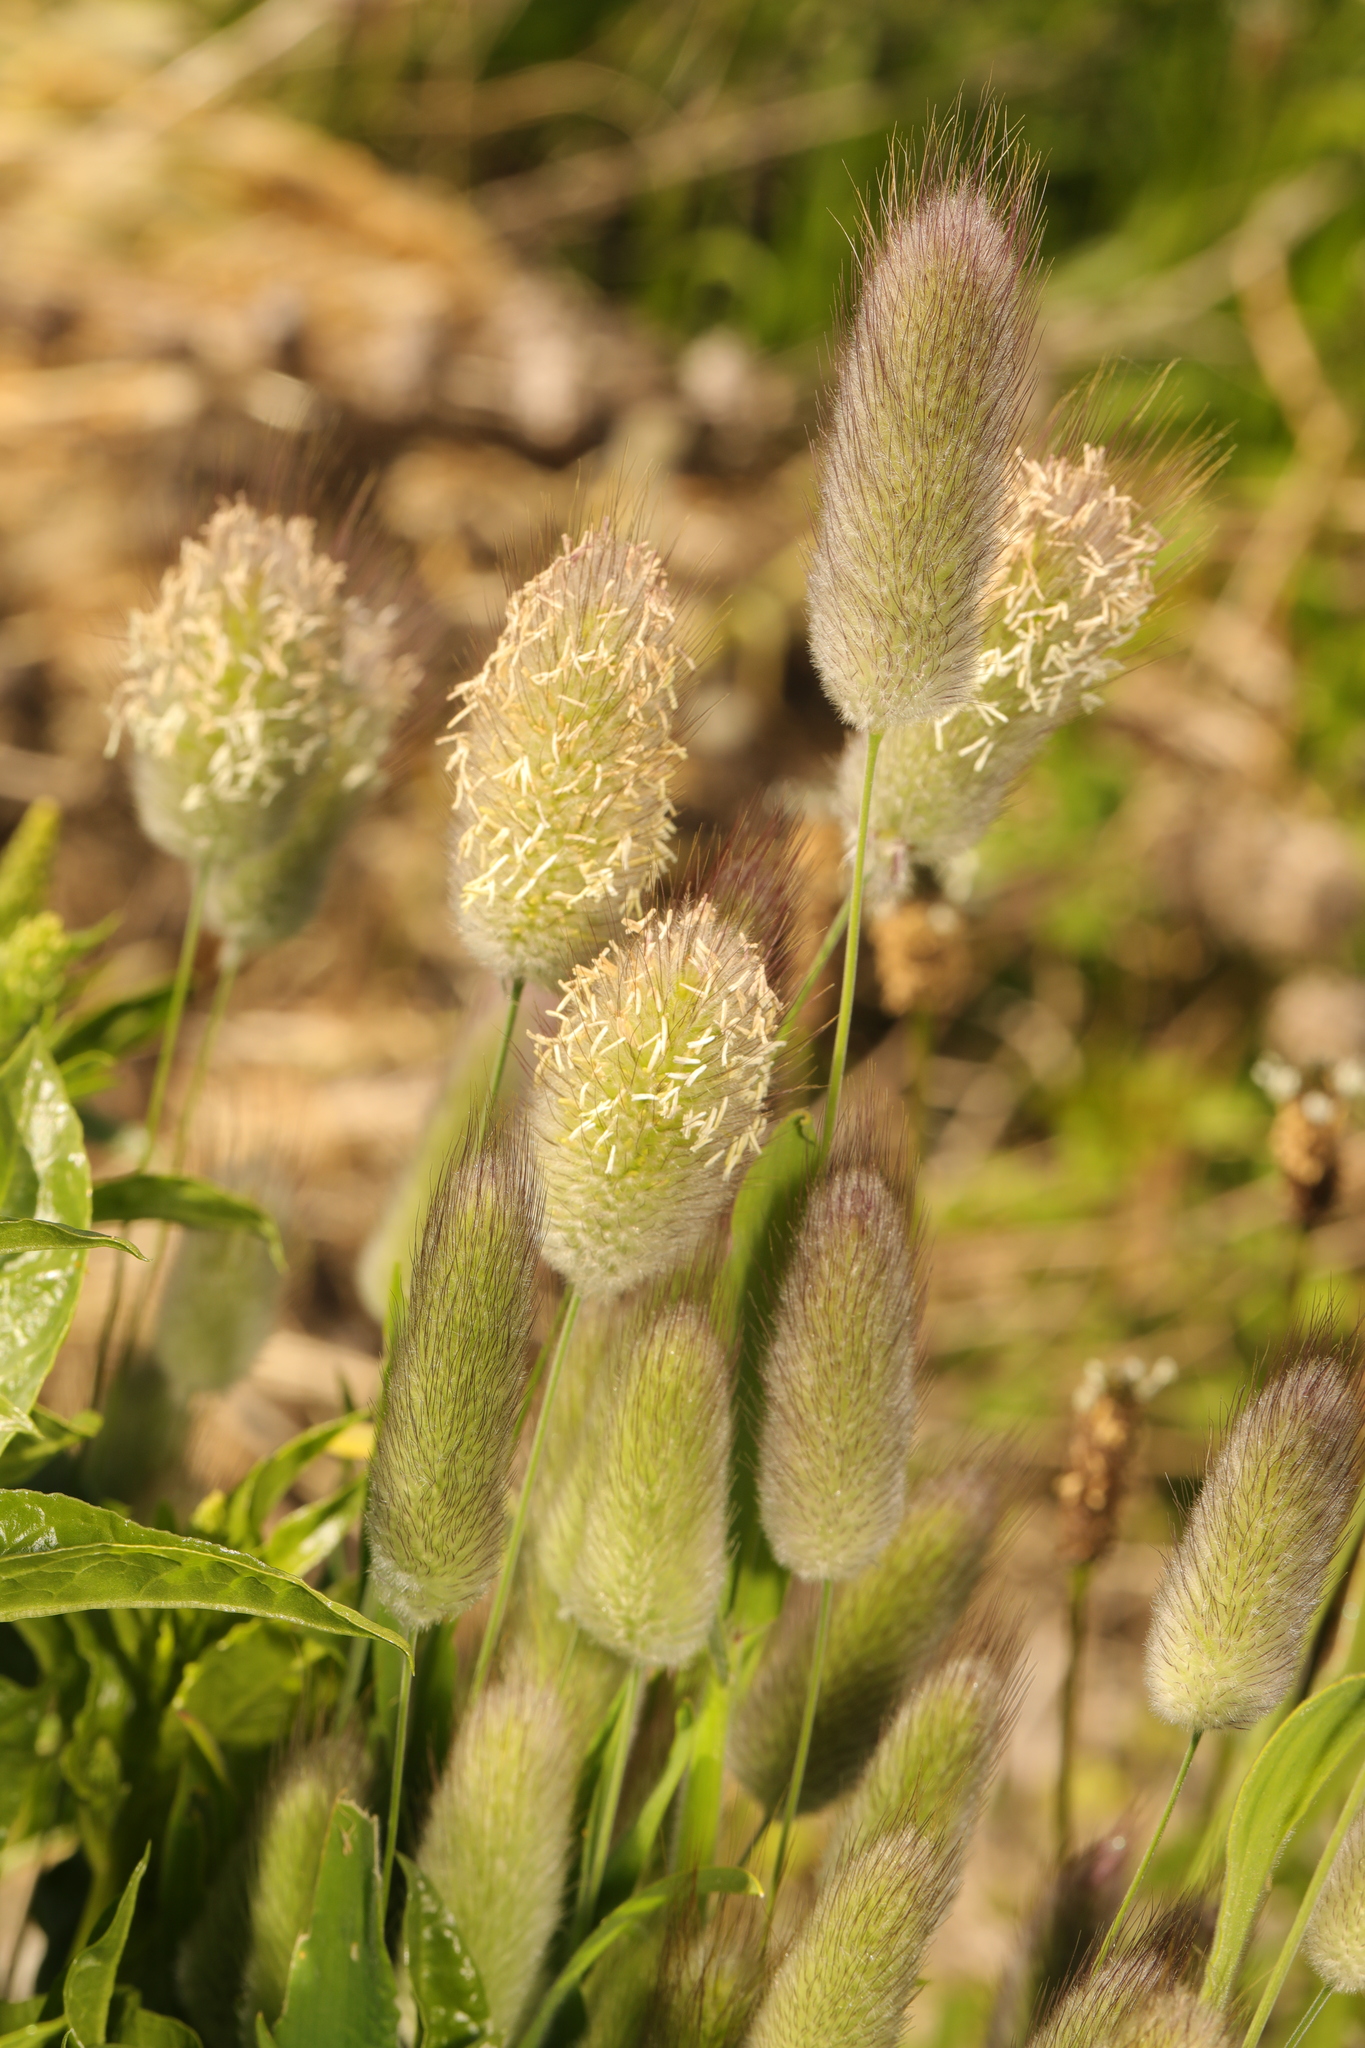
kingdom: Plantae
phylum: Tracheophyta
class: Liliopsida
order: Poales
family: Poaceae
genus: Lagurus
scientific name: Lagurus ovatus
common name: Hare's-tail
